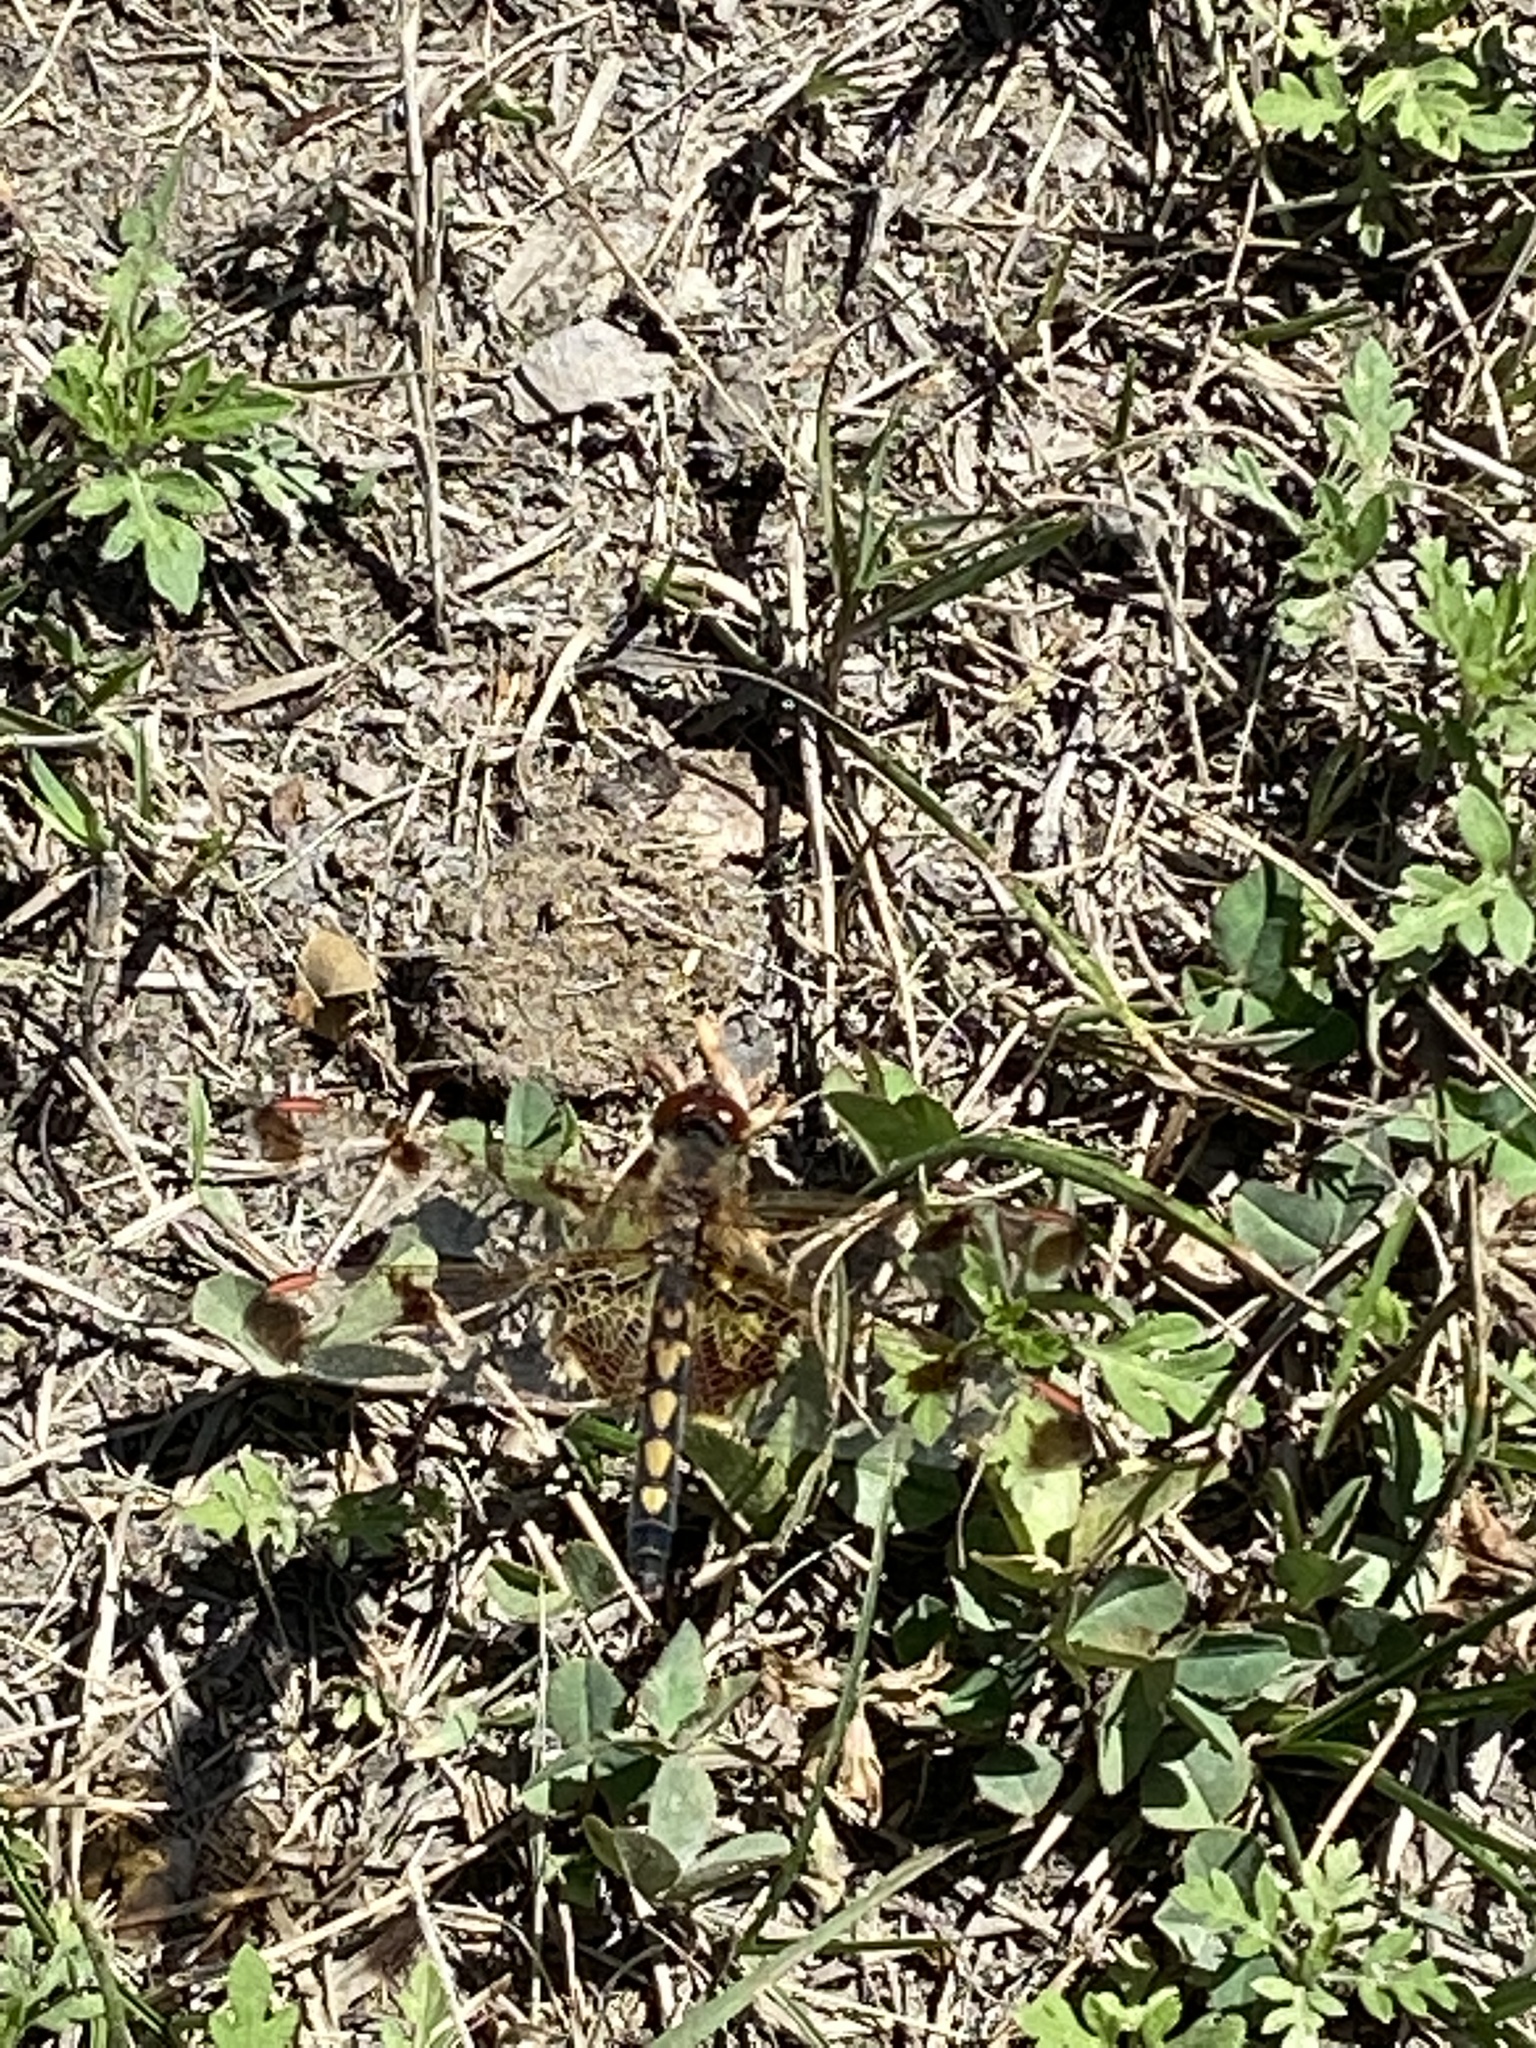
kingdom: Animalia
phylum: Arthropoda
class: Insecta
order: Odonata
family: Libellulidae
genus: Celithemis
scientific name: Celithemis elisa
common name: Calico pennant
